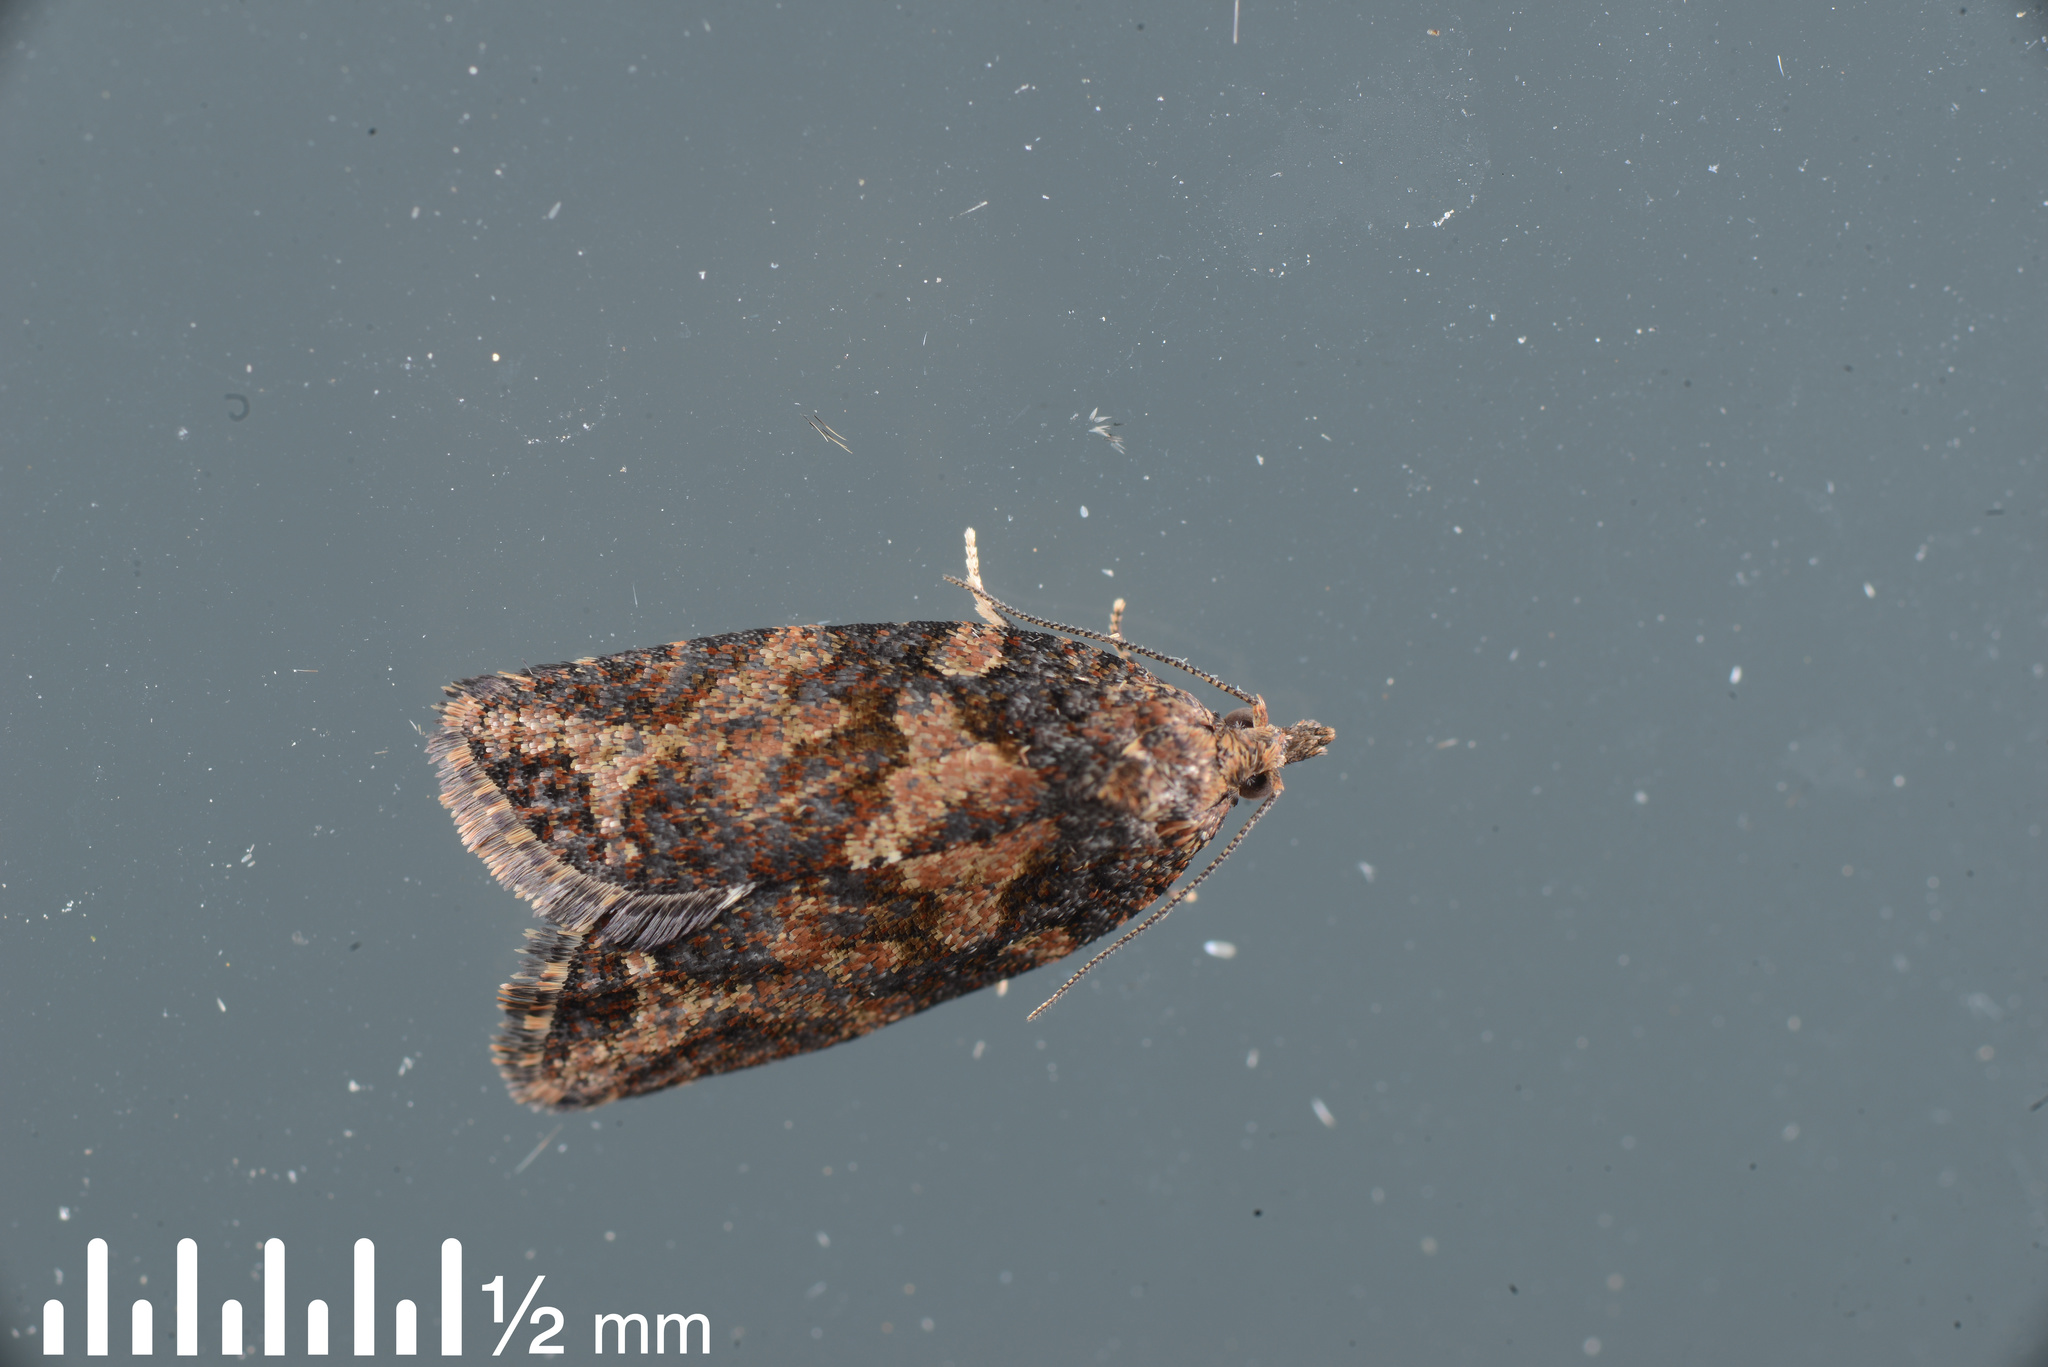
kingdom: Animalia
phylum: Arthropoda
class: Insecta
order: Lepidoptera
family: Tortricidae
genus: Capua
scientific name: Capua intractana
